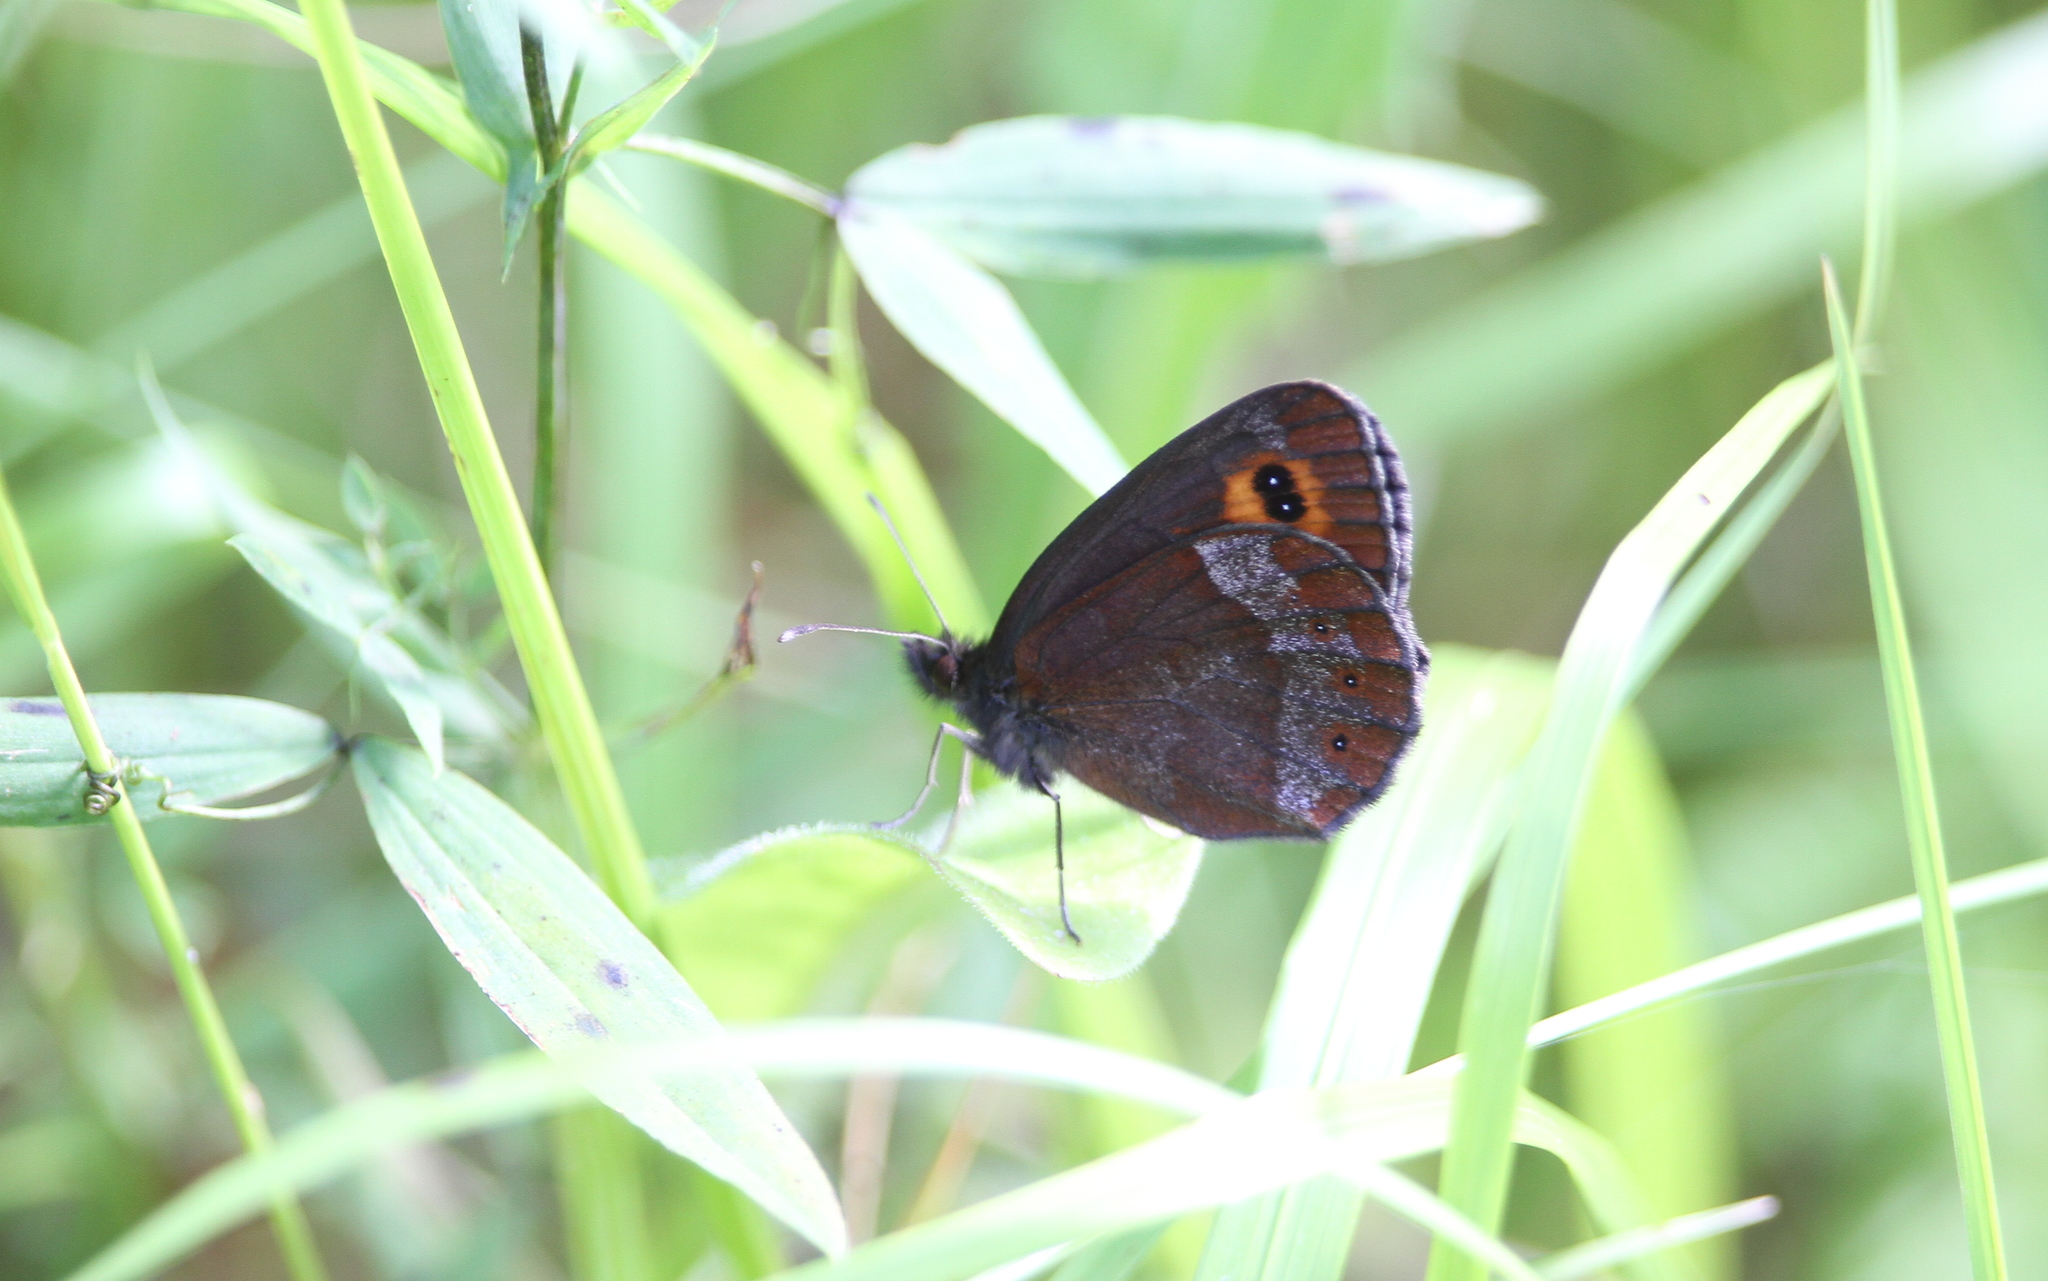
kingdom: Animalia
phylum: Arthropoda
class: Insecta
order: Lepidoptera
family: Nymphalidae
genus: Erebia
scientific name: Erebia aethiops
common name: Scotch argus
